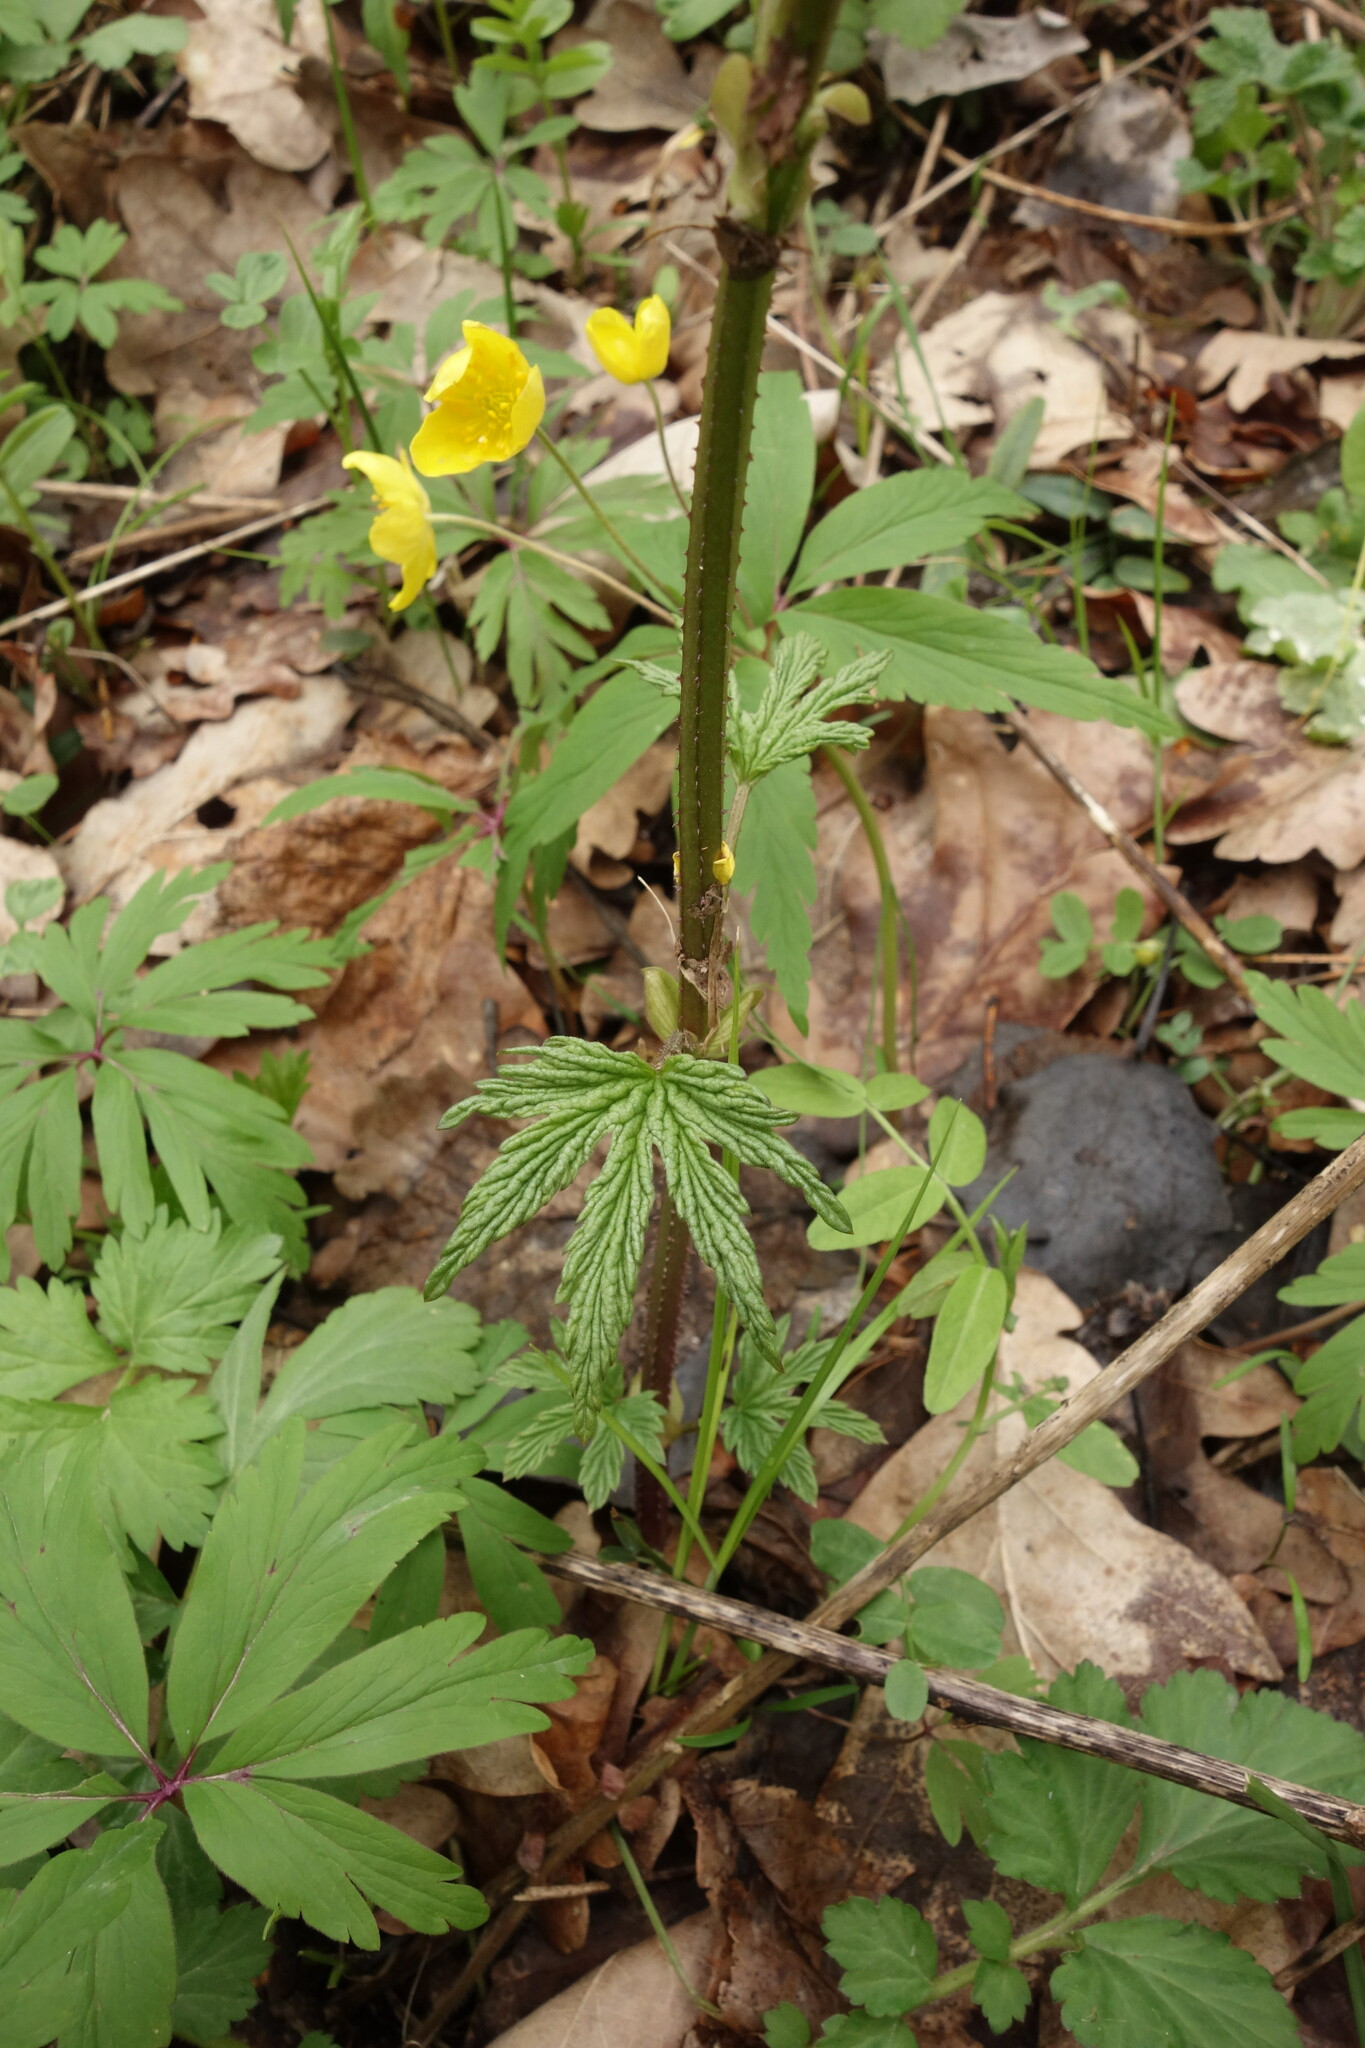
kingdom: Plantae
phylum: Tracheophyta
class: Magnoliopsida
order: Rosales
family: Cannabaceae
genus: Humulus
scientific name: Humulus lupulus
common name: Hop
